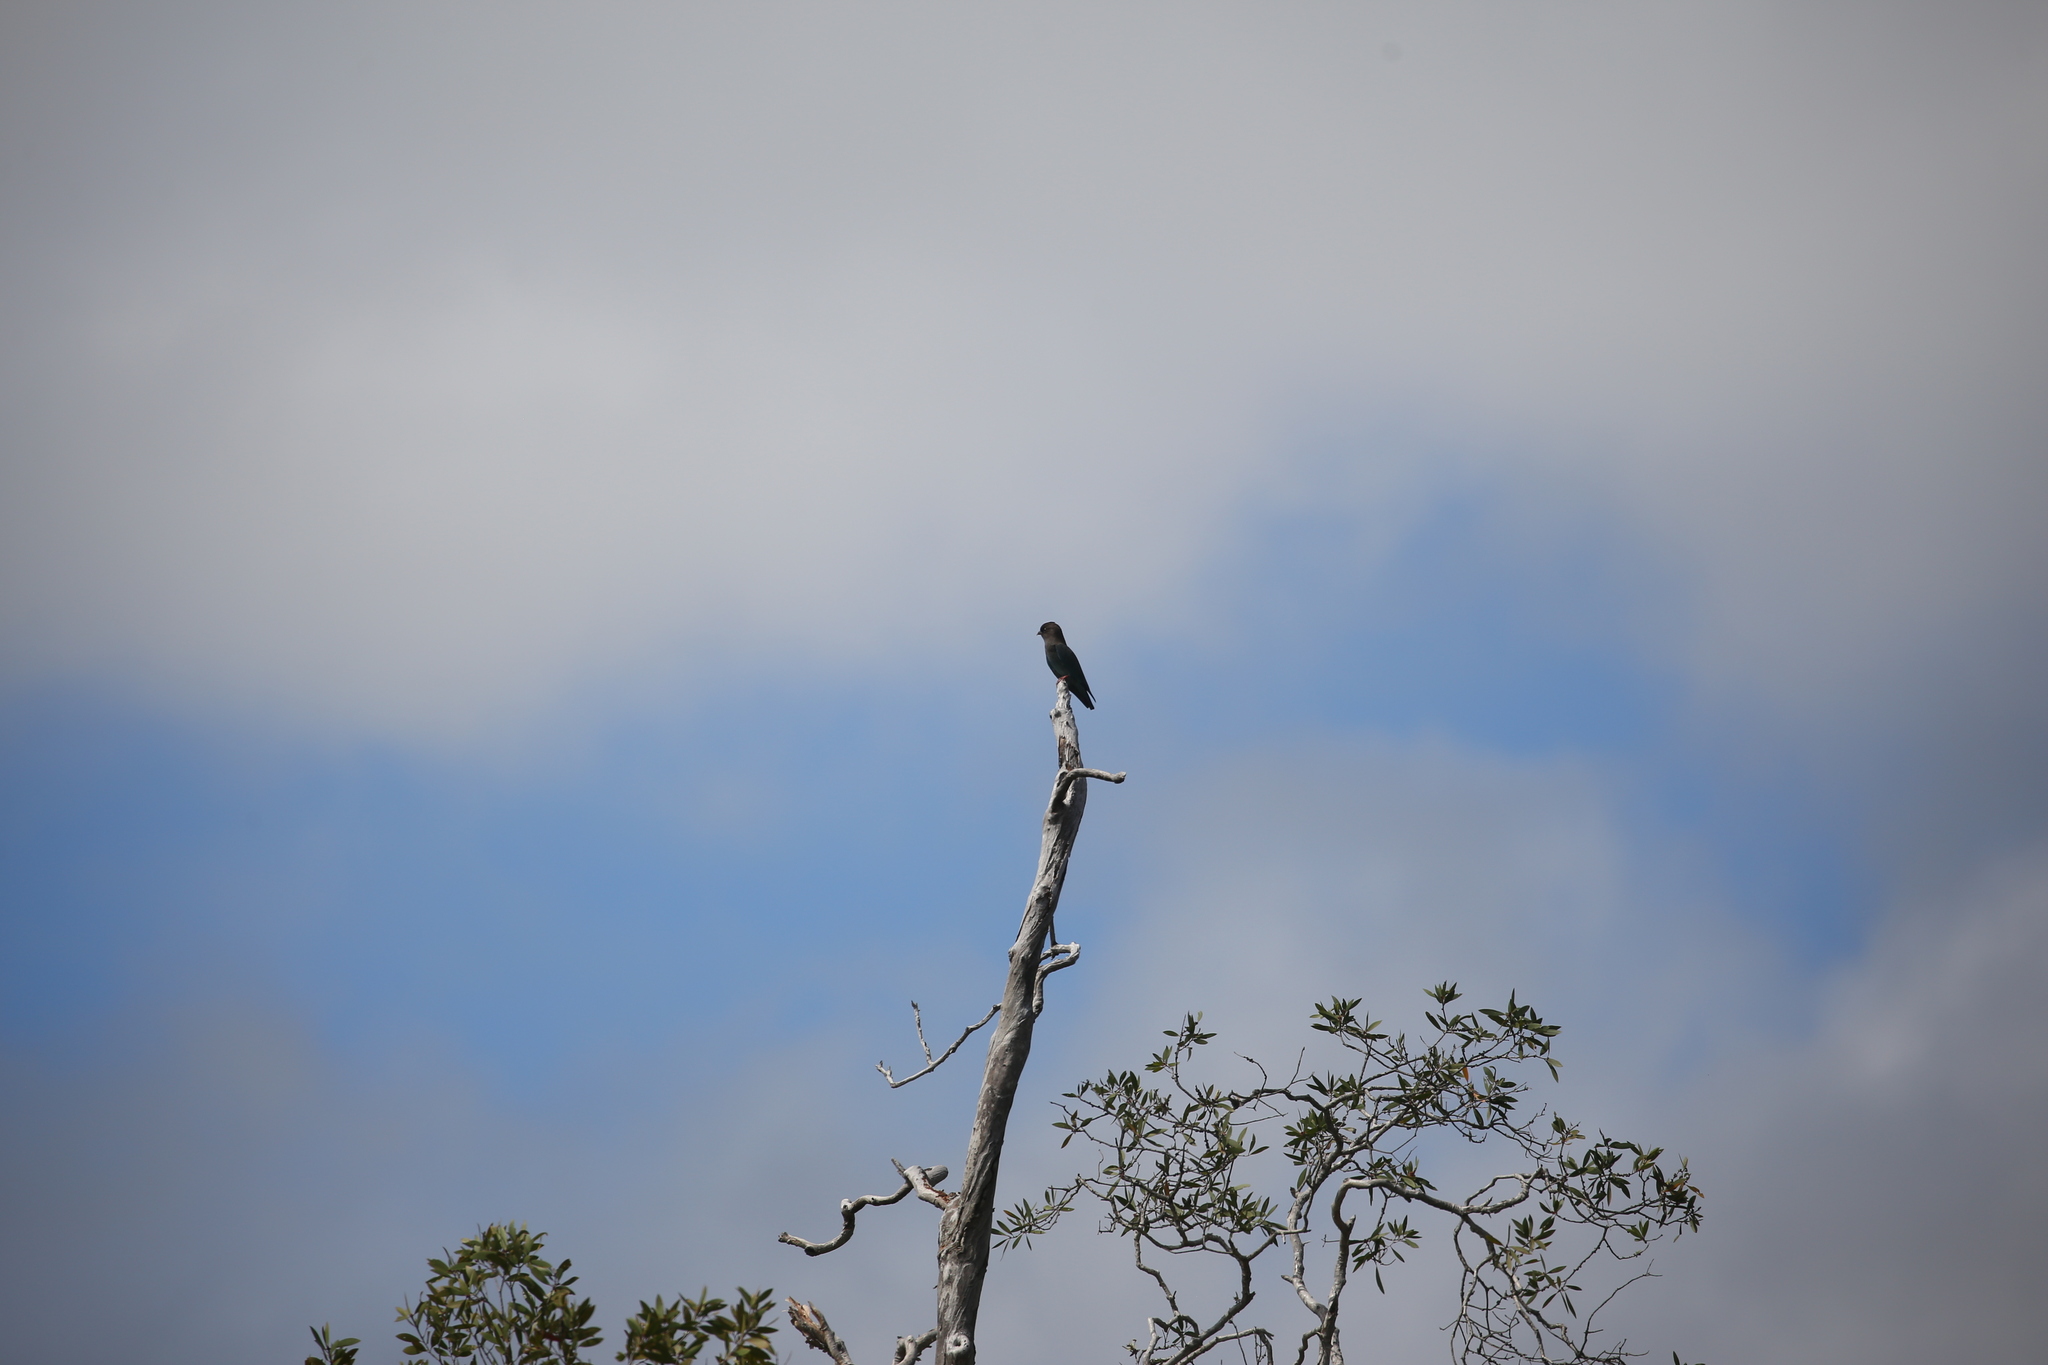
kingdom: Animalia
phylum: Chordata
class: Aves
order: Coraciiformes
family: Coraciidae
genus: Eurystomus
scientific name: Eurystomus orientalis
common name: Oriental dollarbird
